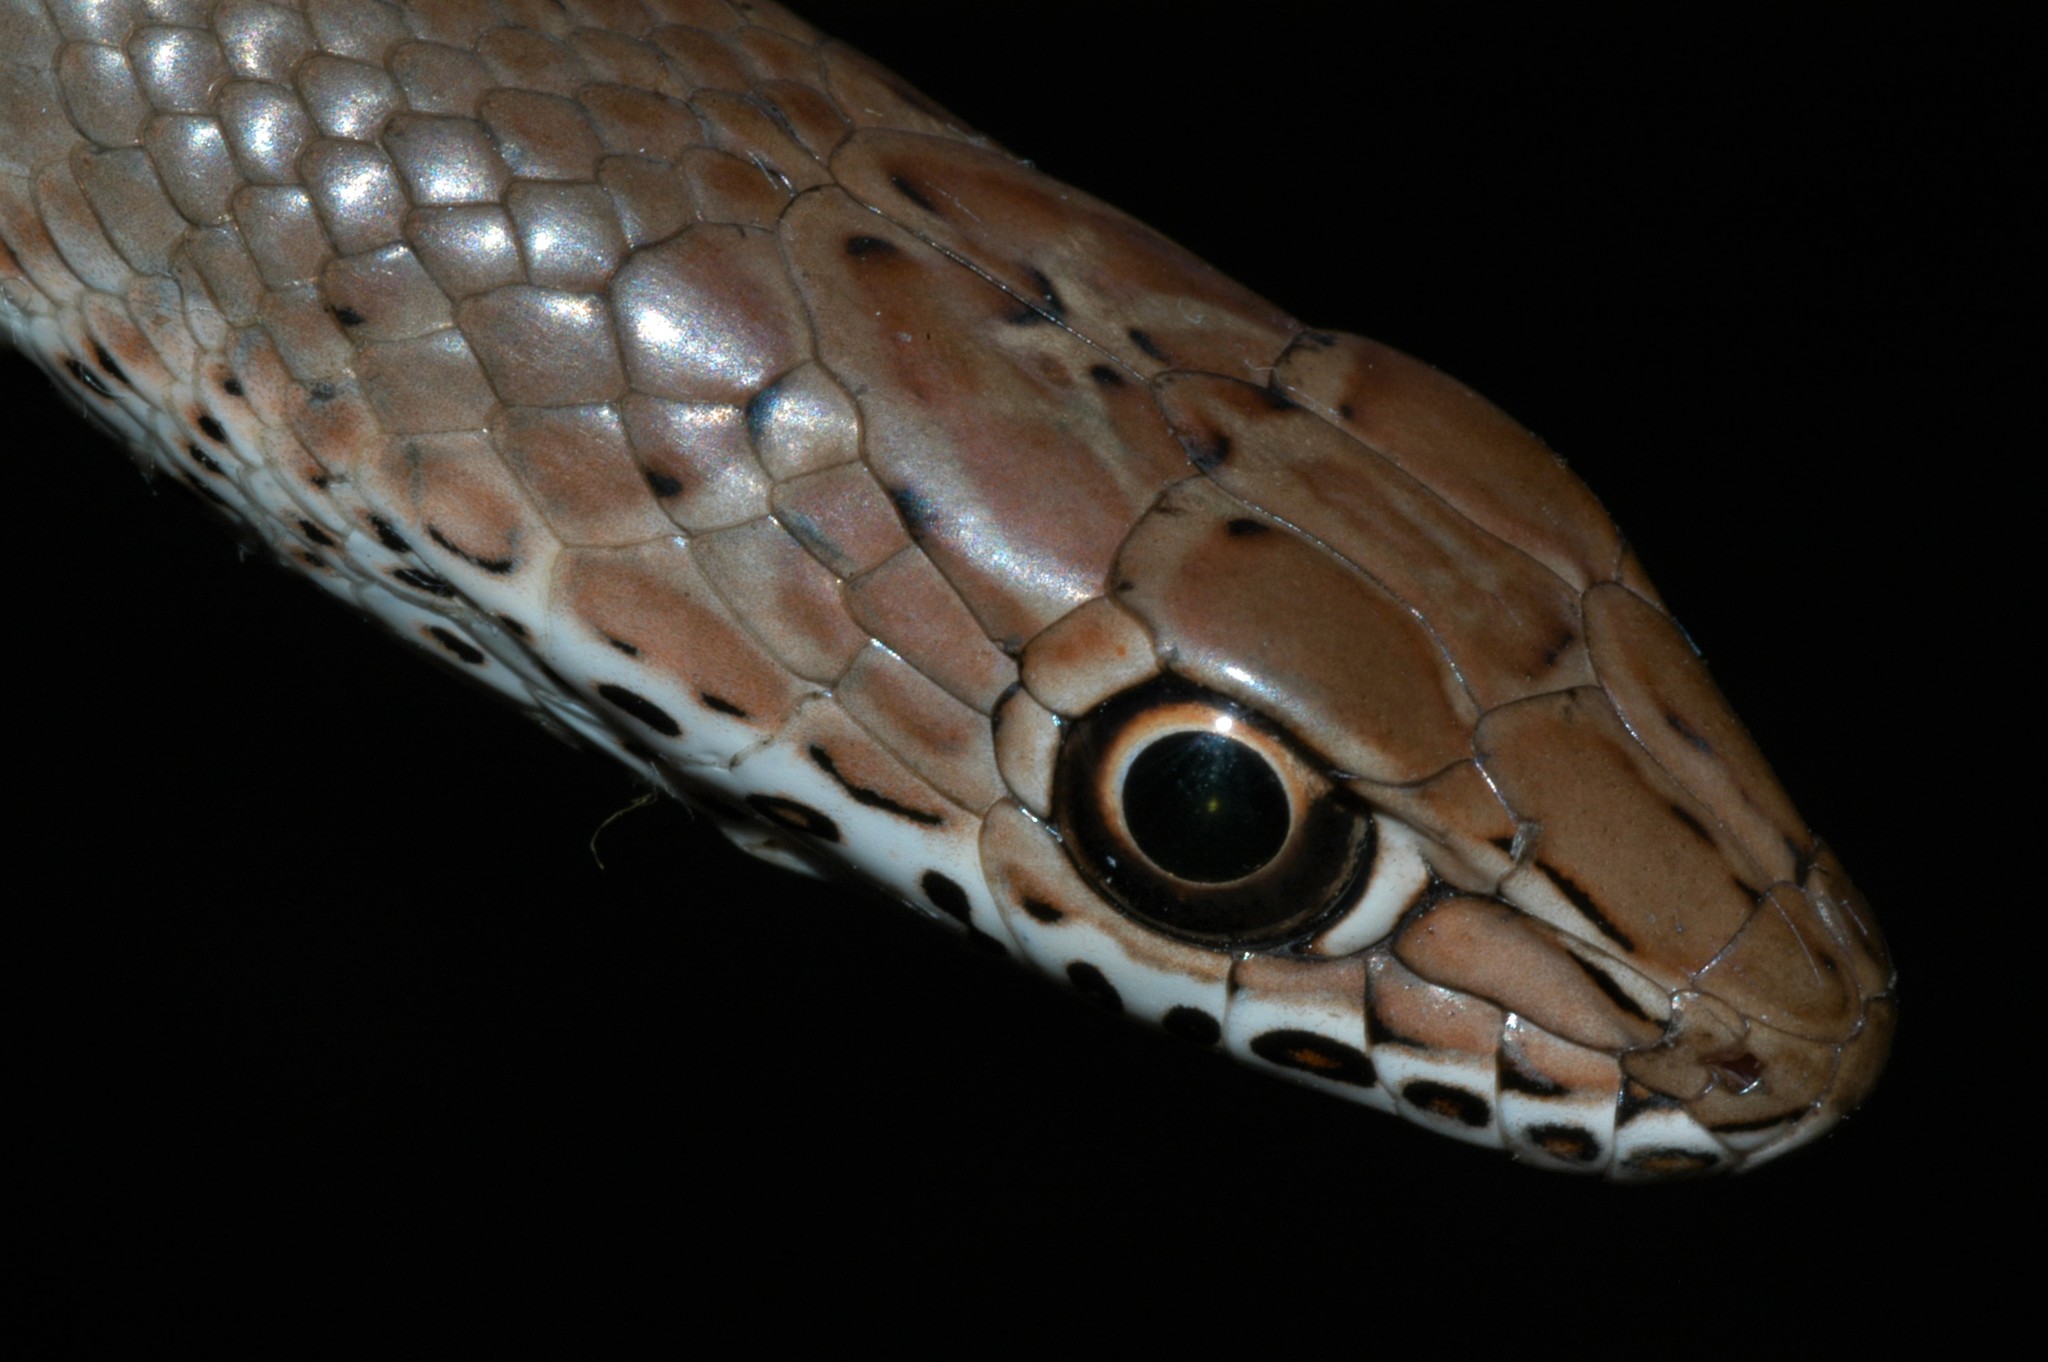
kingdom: Animalia
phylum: Chordata
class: Squamata
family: Psammophiidae
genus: Psammophis
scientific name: Psammophis mossambicus
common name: Olive grass snake
